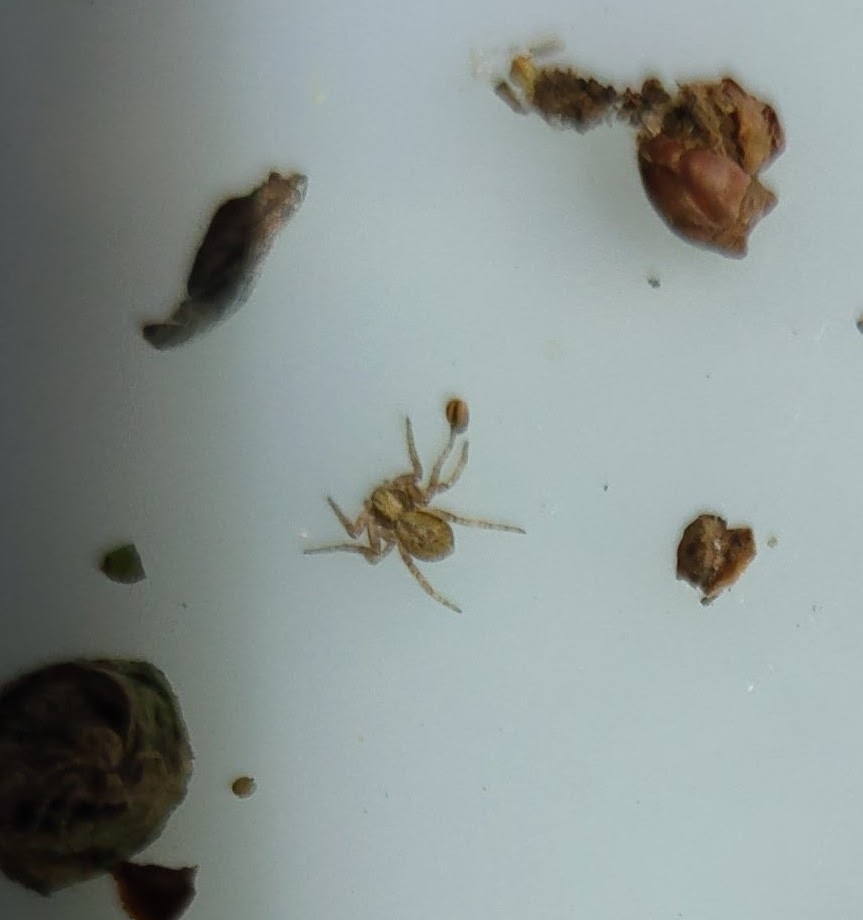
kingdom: Animalia
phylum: Arthropoda
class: Arachnida
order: Araneae
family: Philodromidae
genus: Philodromus
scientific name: Philodromus
